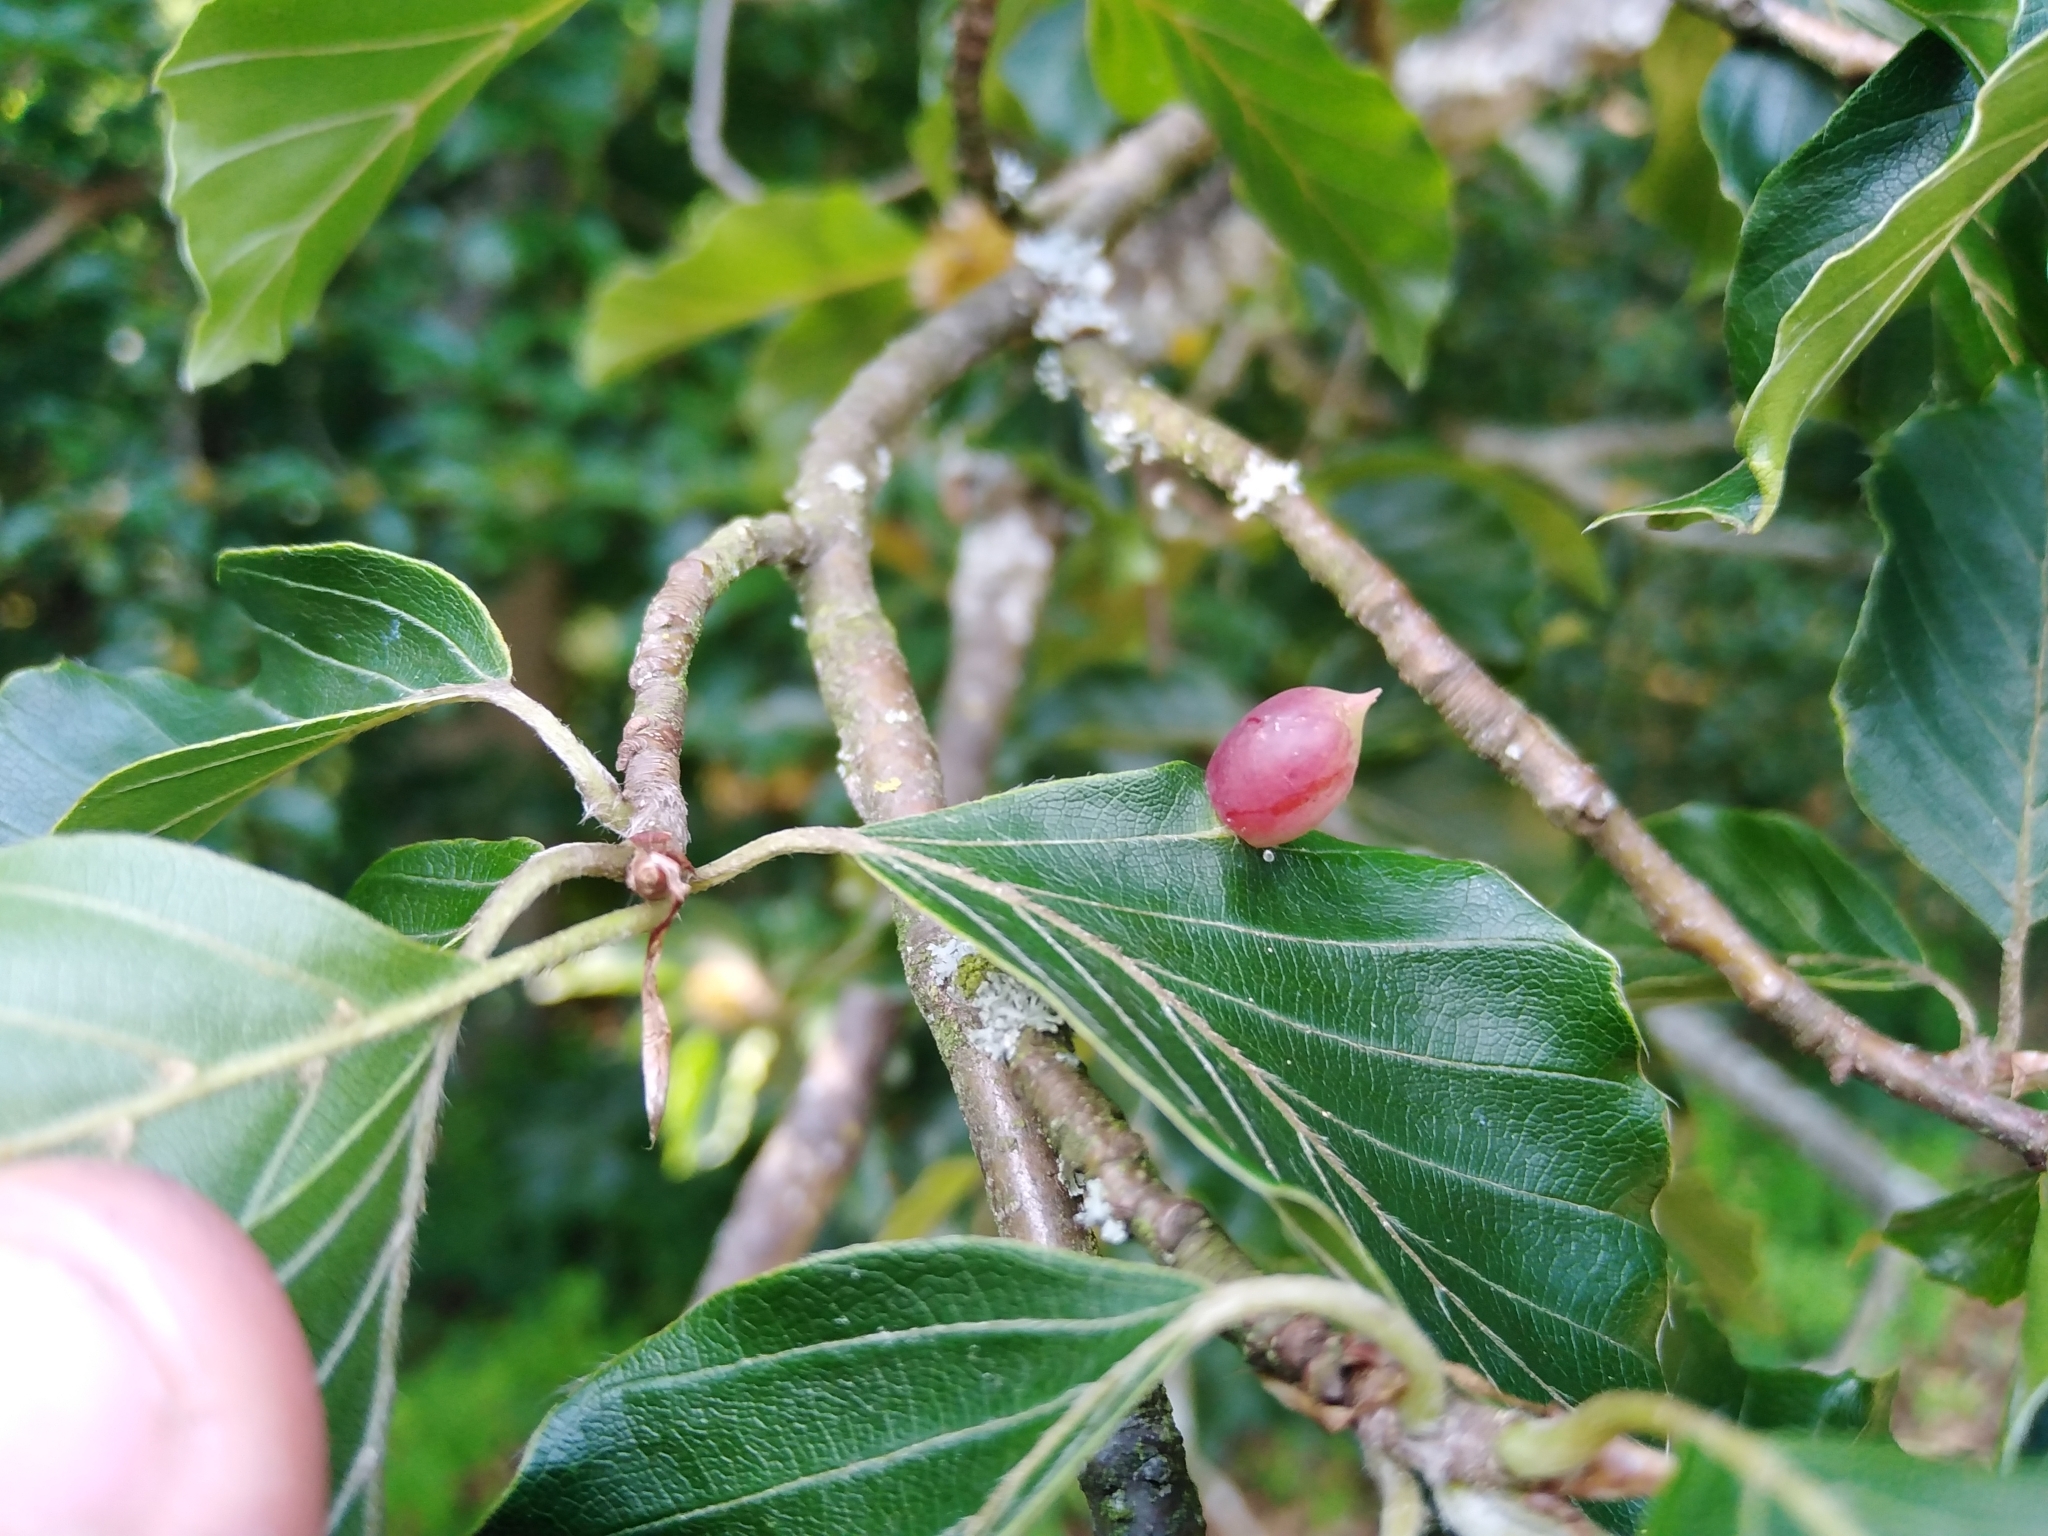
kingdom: Animalia
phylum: Arthropoda
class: Insecta
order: Diptera
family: Cecidomyiidae
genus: Mikiola
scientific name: Mikiola fagi
